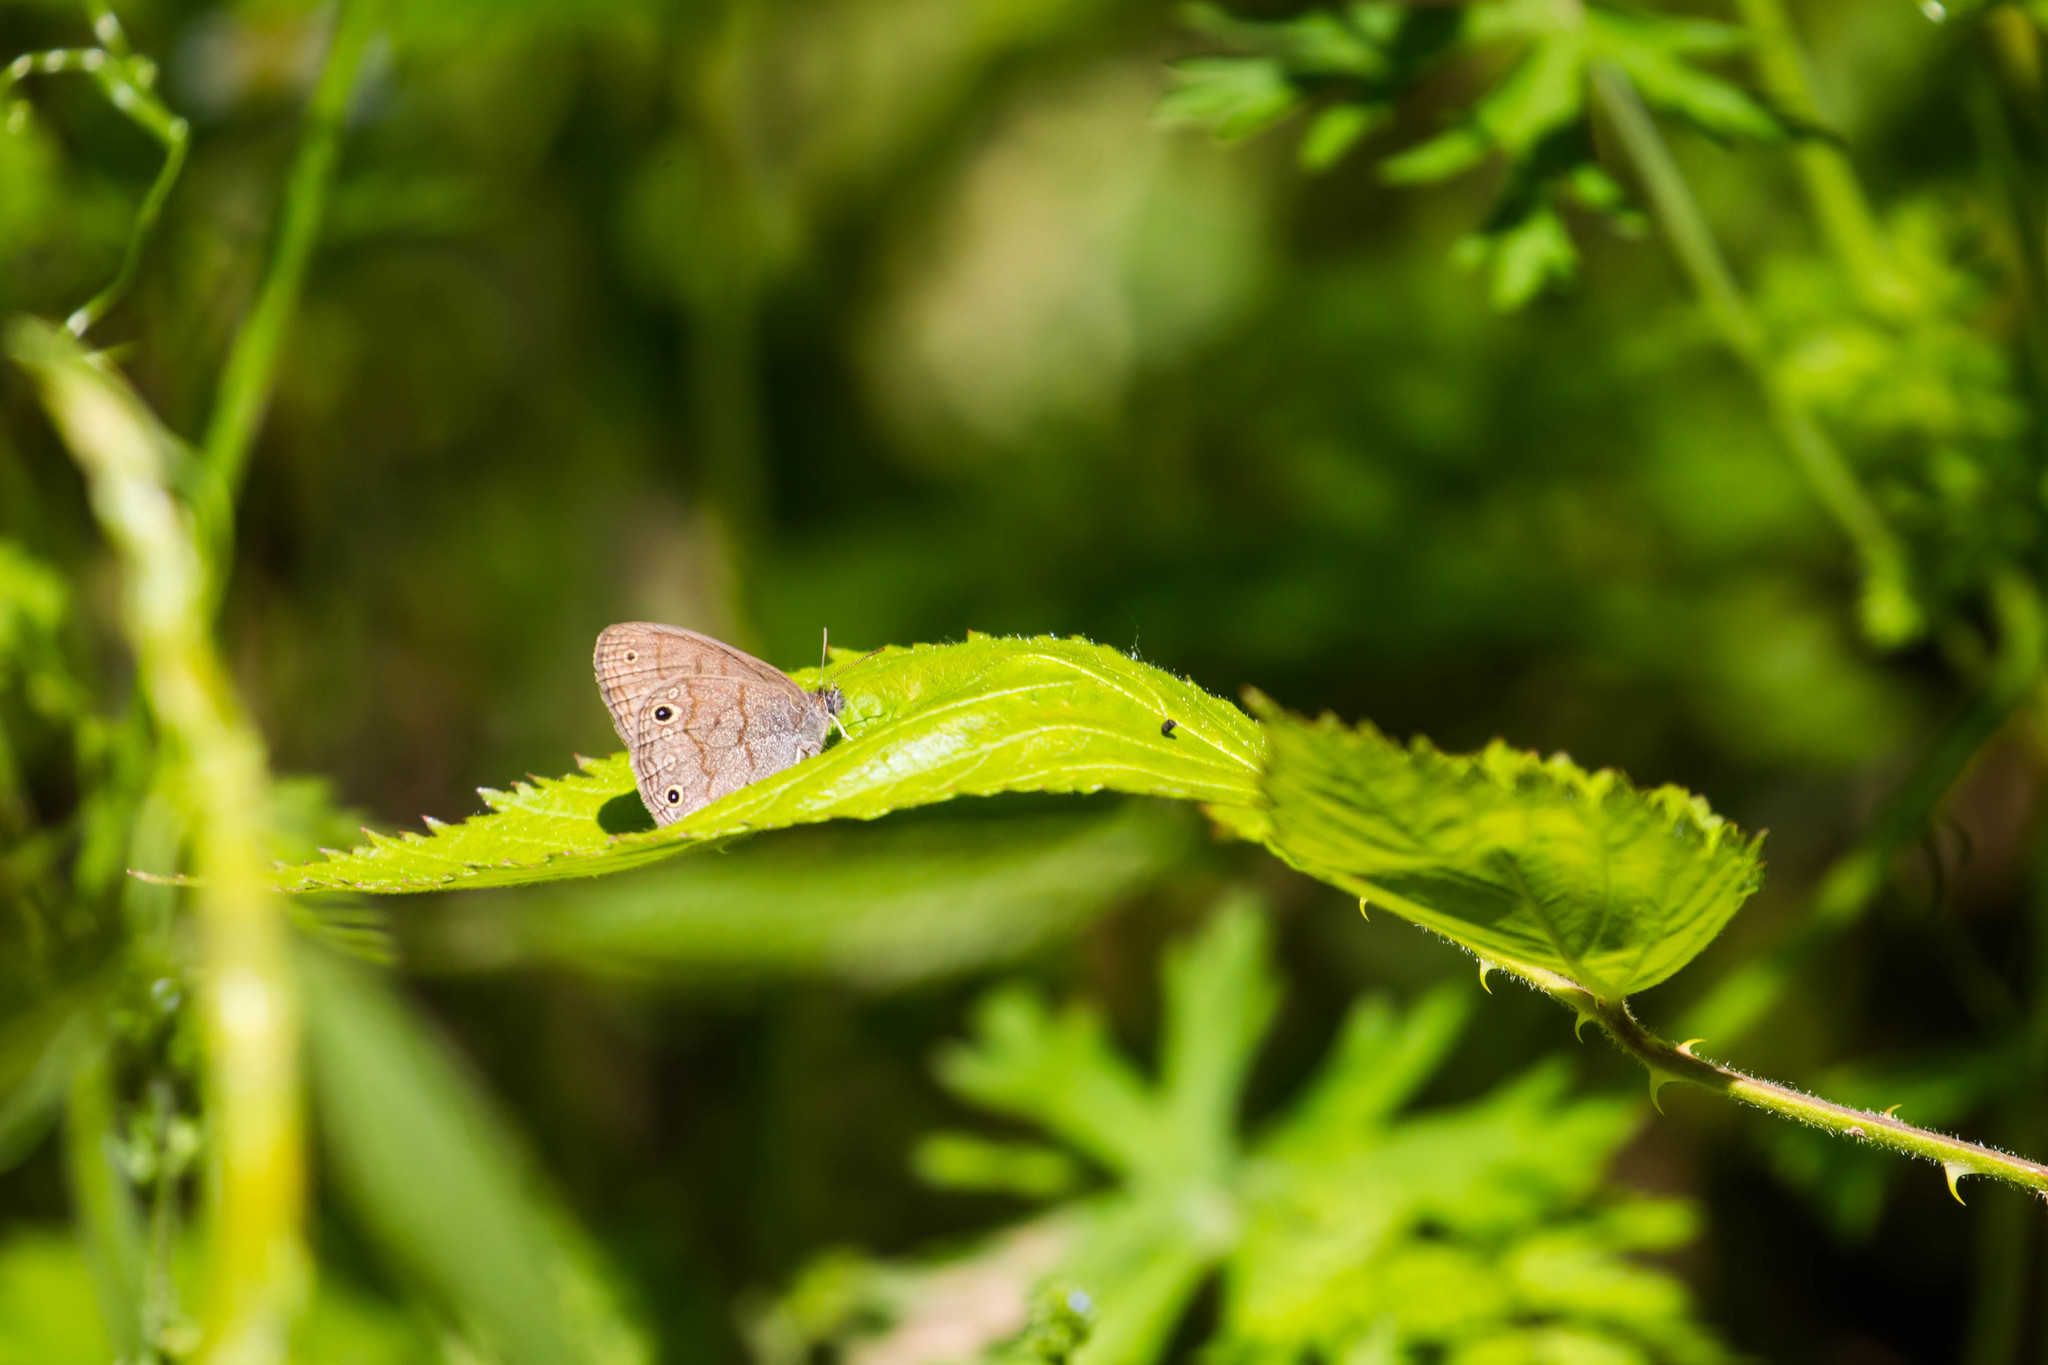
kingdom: Animalia
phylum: Arthropoda
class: Insecta
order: Lepidoptera
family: Nymphalidae
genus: Hermeuptychia
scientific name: Hermeuptychia hermes
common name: Hermes satyr
